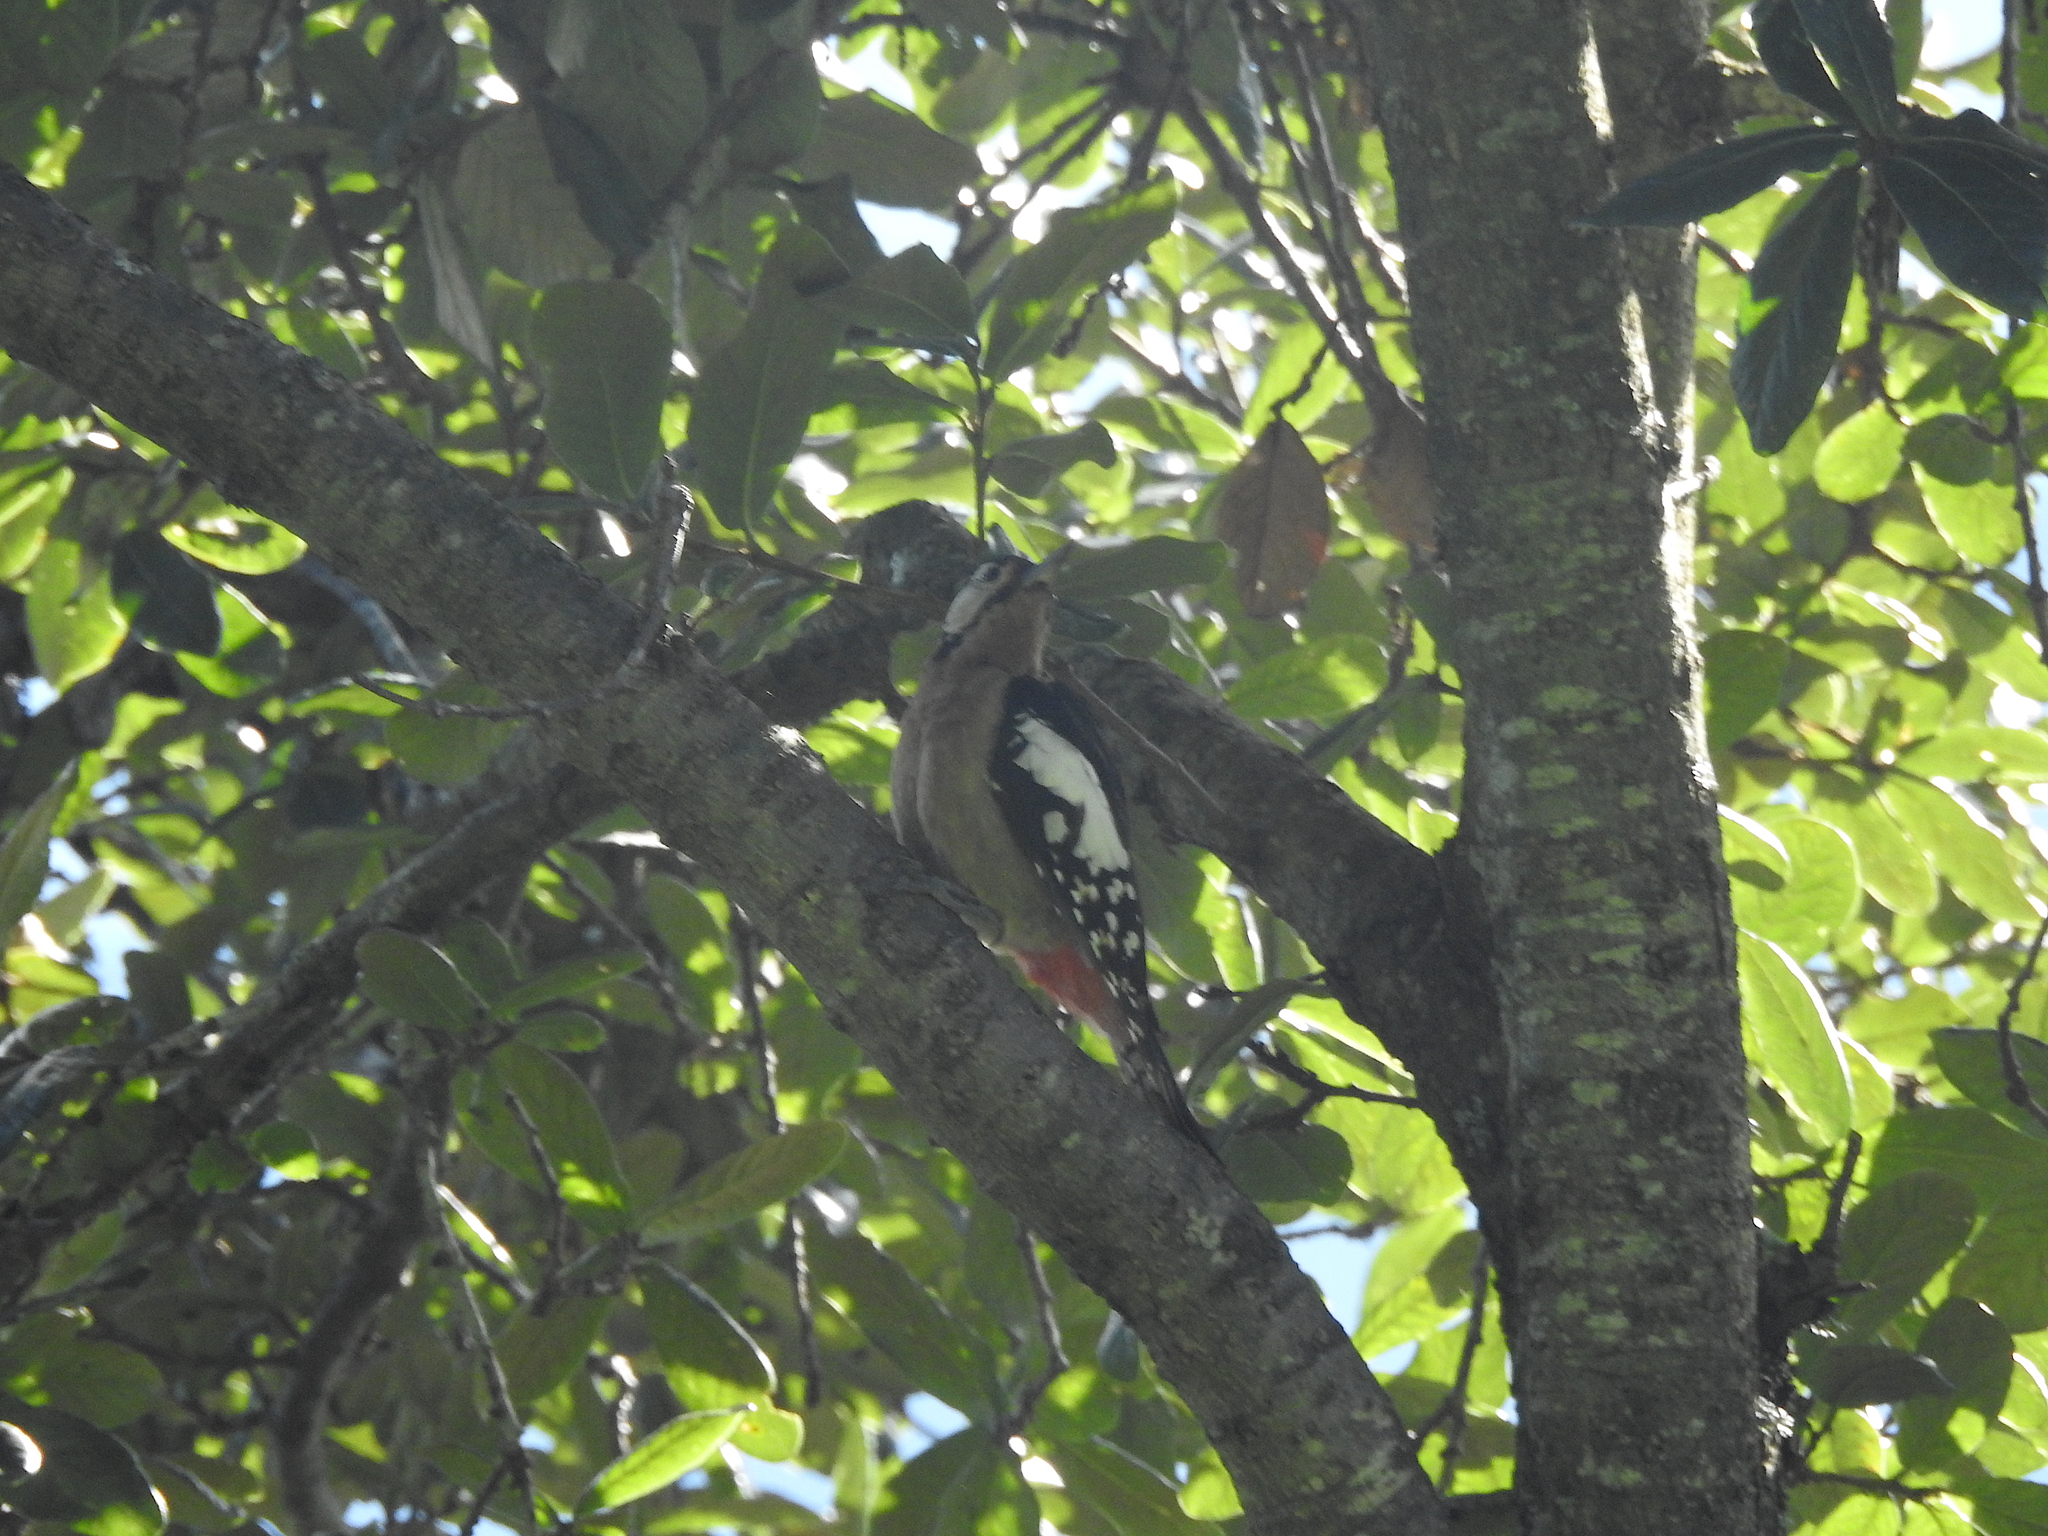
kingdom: Animalia
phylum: Chordata
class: Aves
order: Piciformes
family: Picidae
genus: Dendrocopos
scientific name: Dendrocopos himalayensis
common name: Himalayan woodpecker
